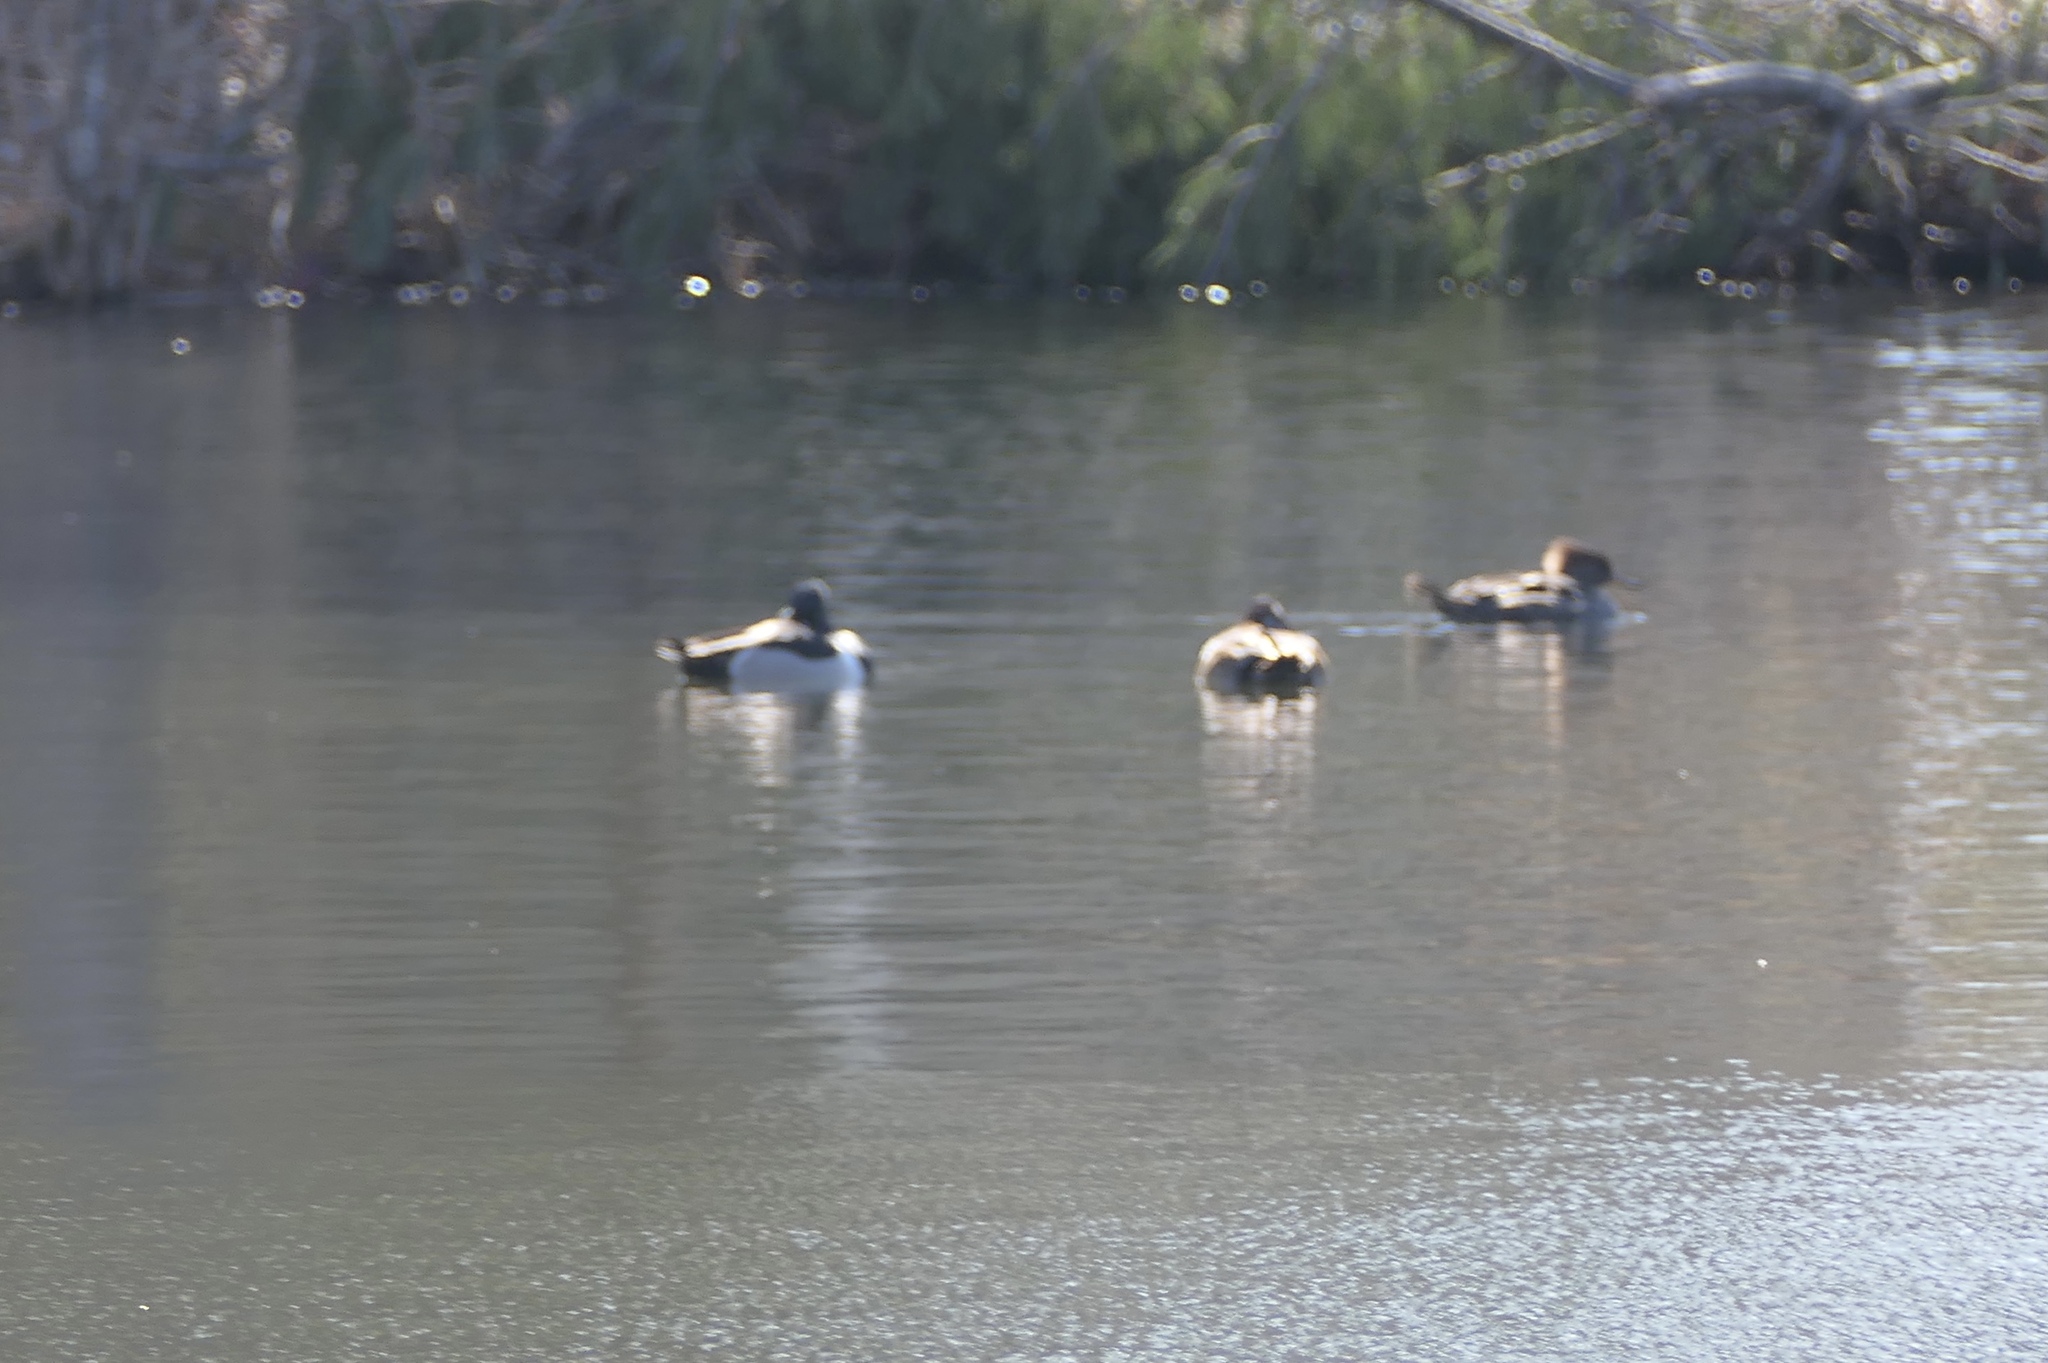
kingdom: Animalia
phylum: Chordata
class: Aves
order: Anseriformes
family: Anatidae
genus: Aythya
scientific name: Aythya collaris
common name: Ring-necked duck
